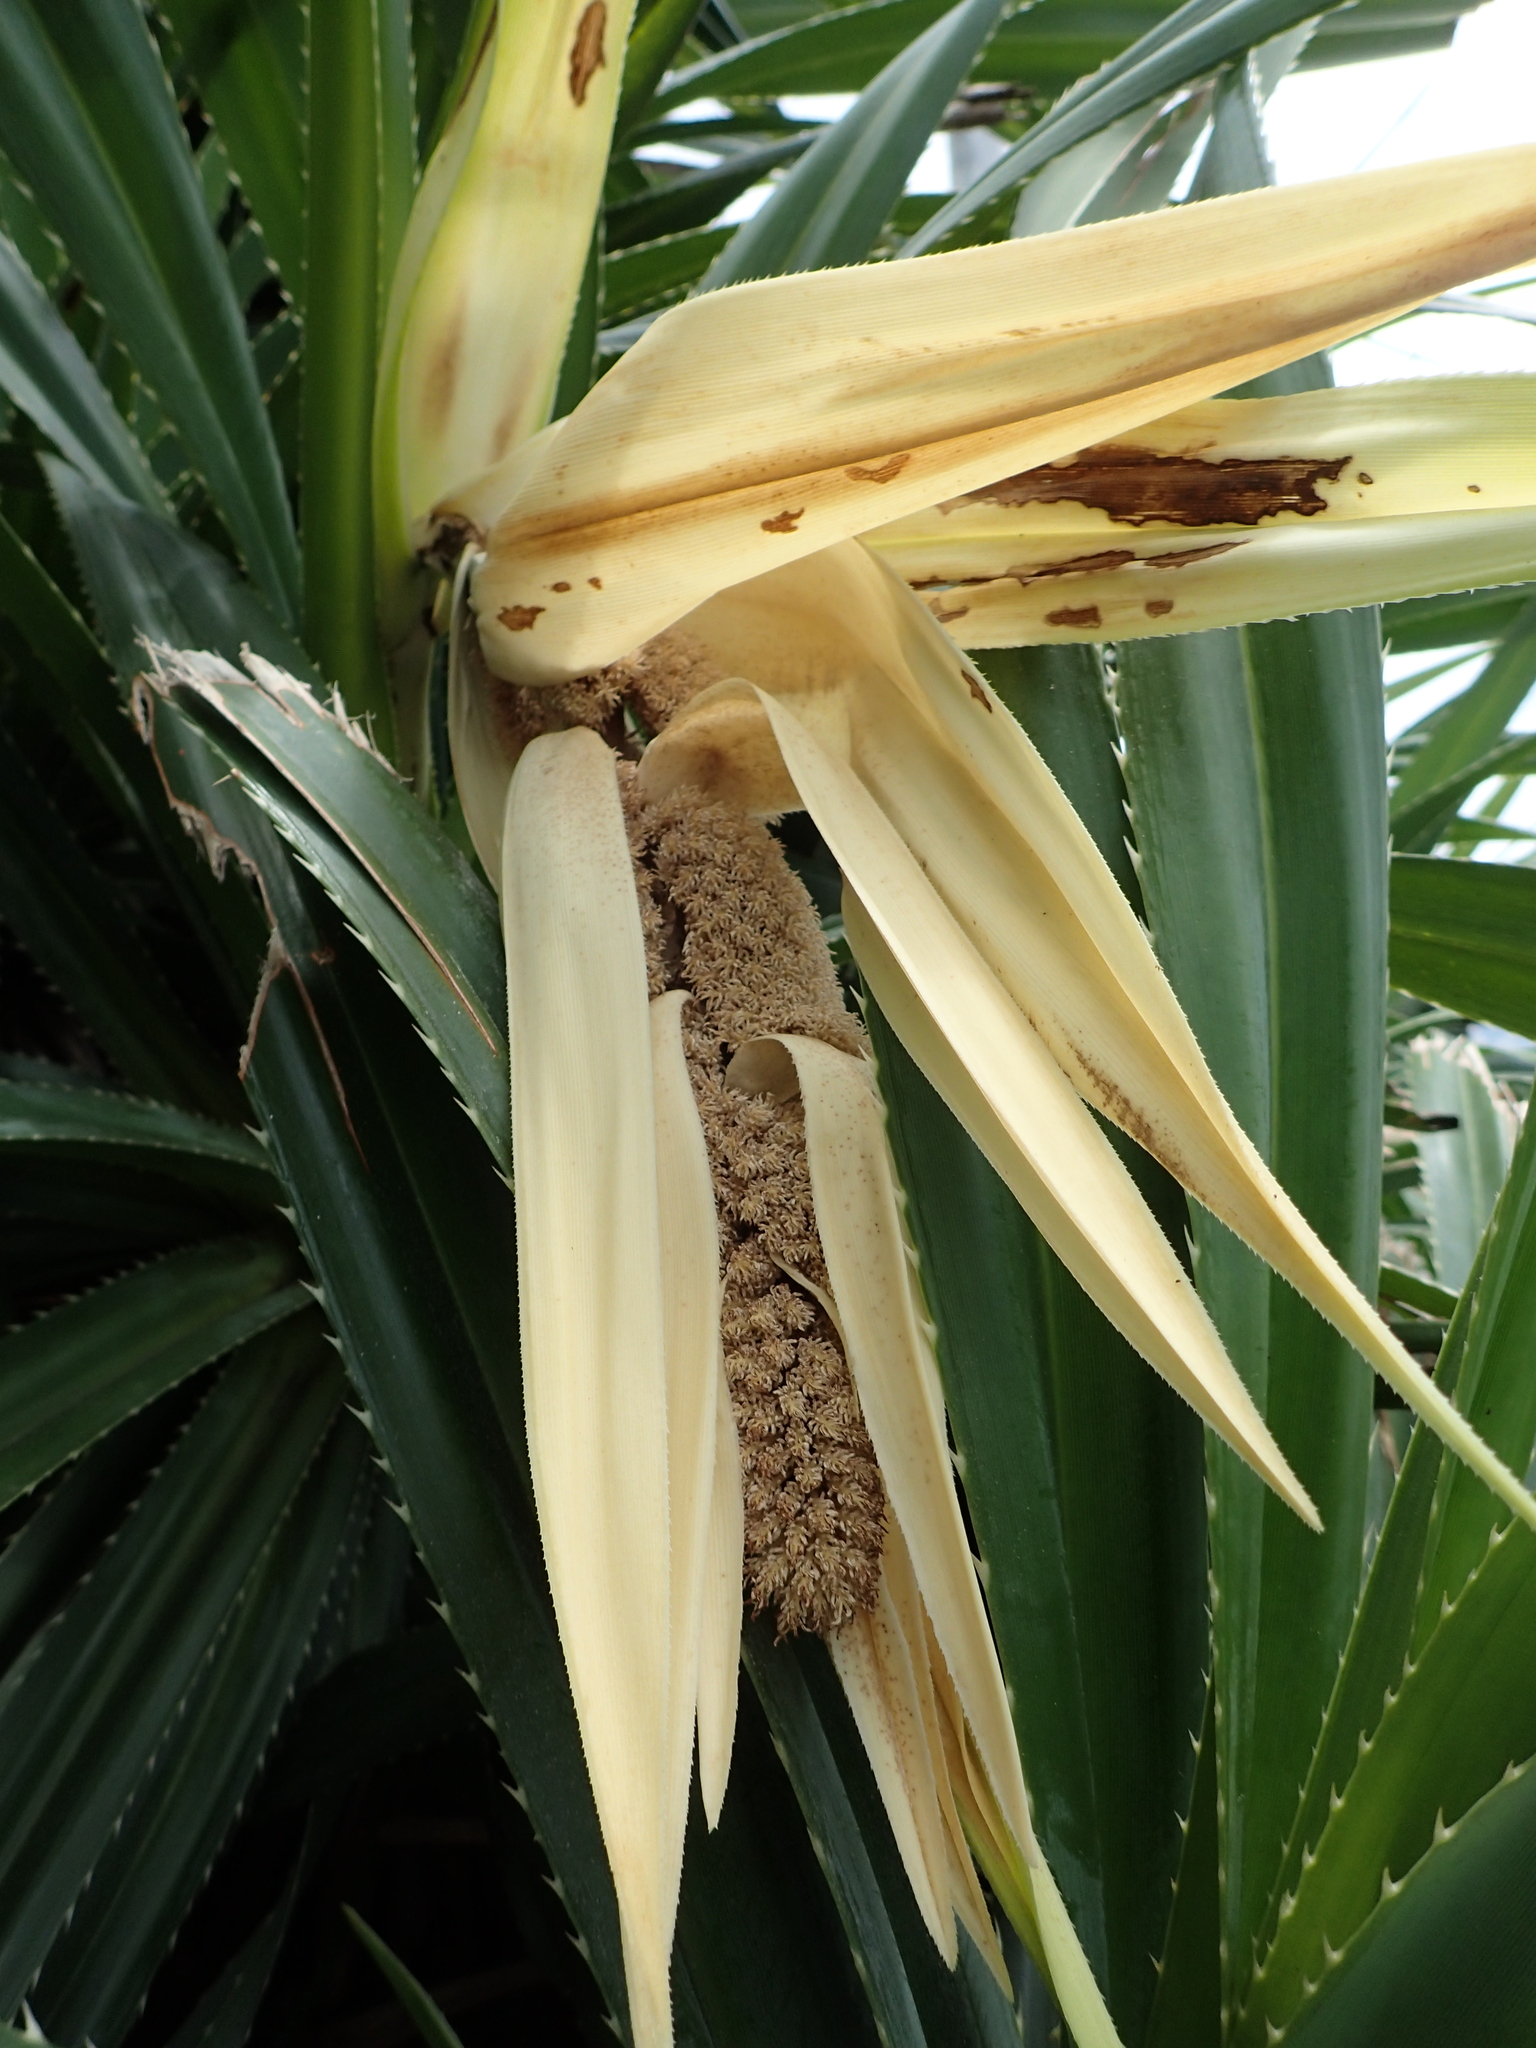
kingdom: Plantae
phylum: Tracheophyta
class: Liliopsida
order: Pandanales
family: Pandanaceae
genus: Pandanus
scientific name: Pandanus odorifer
